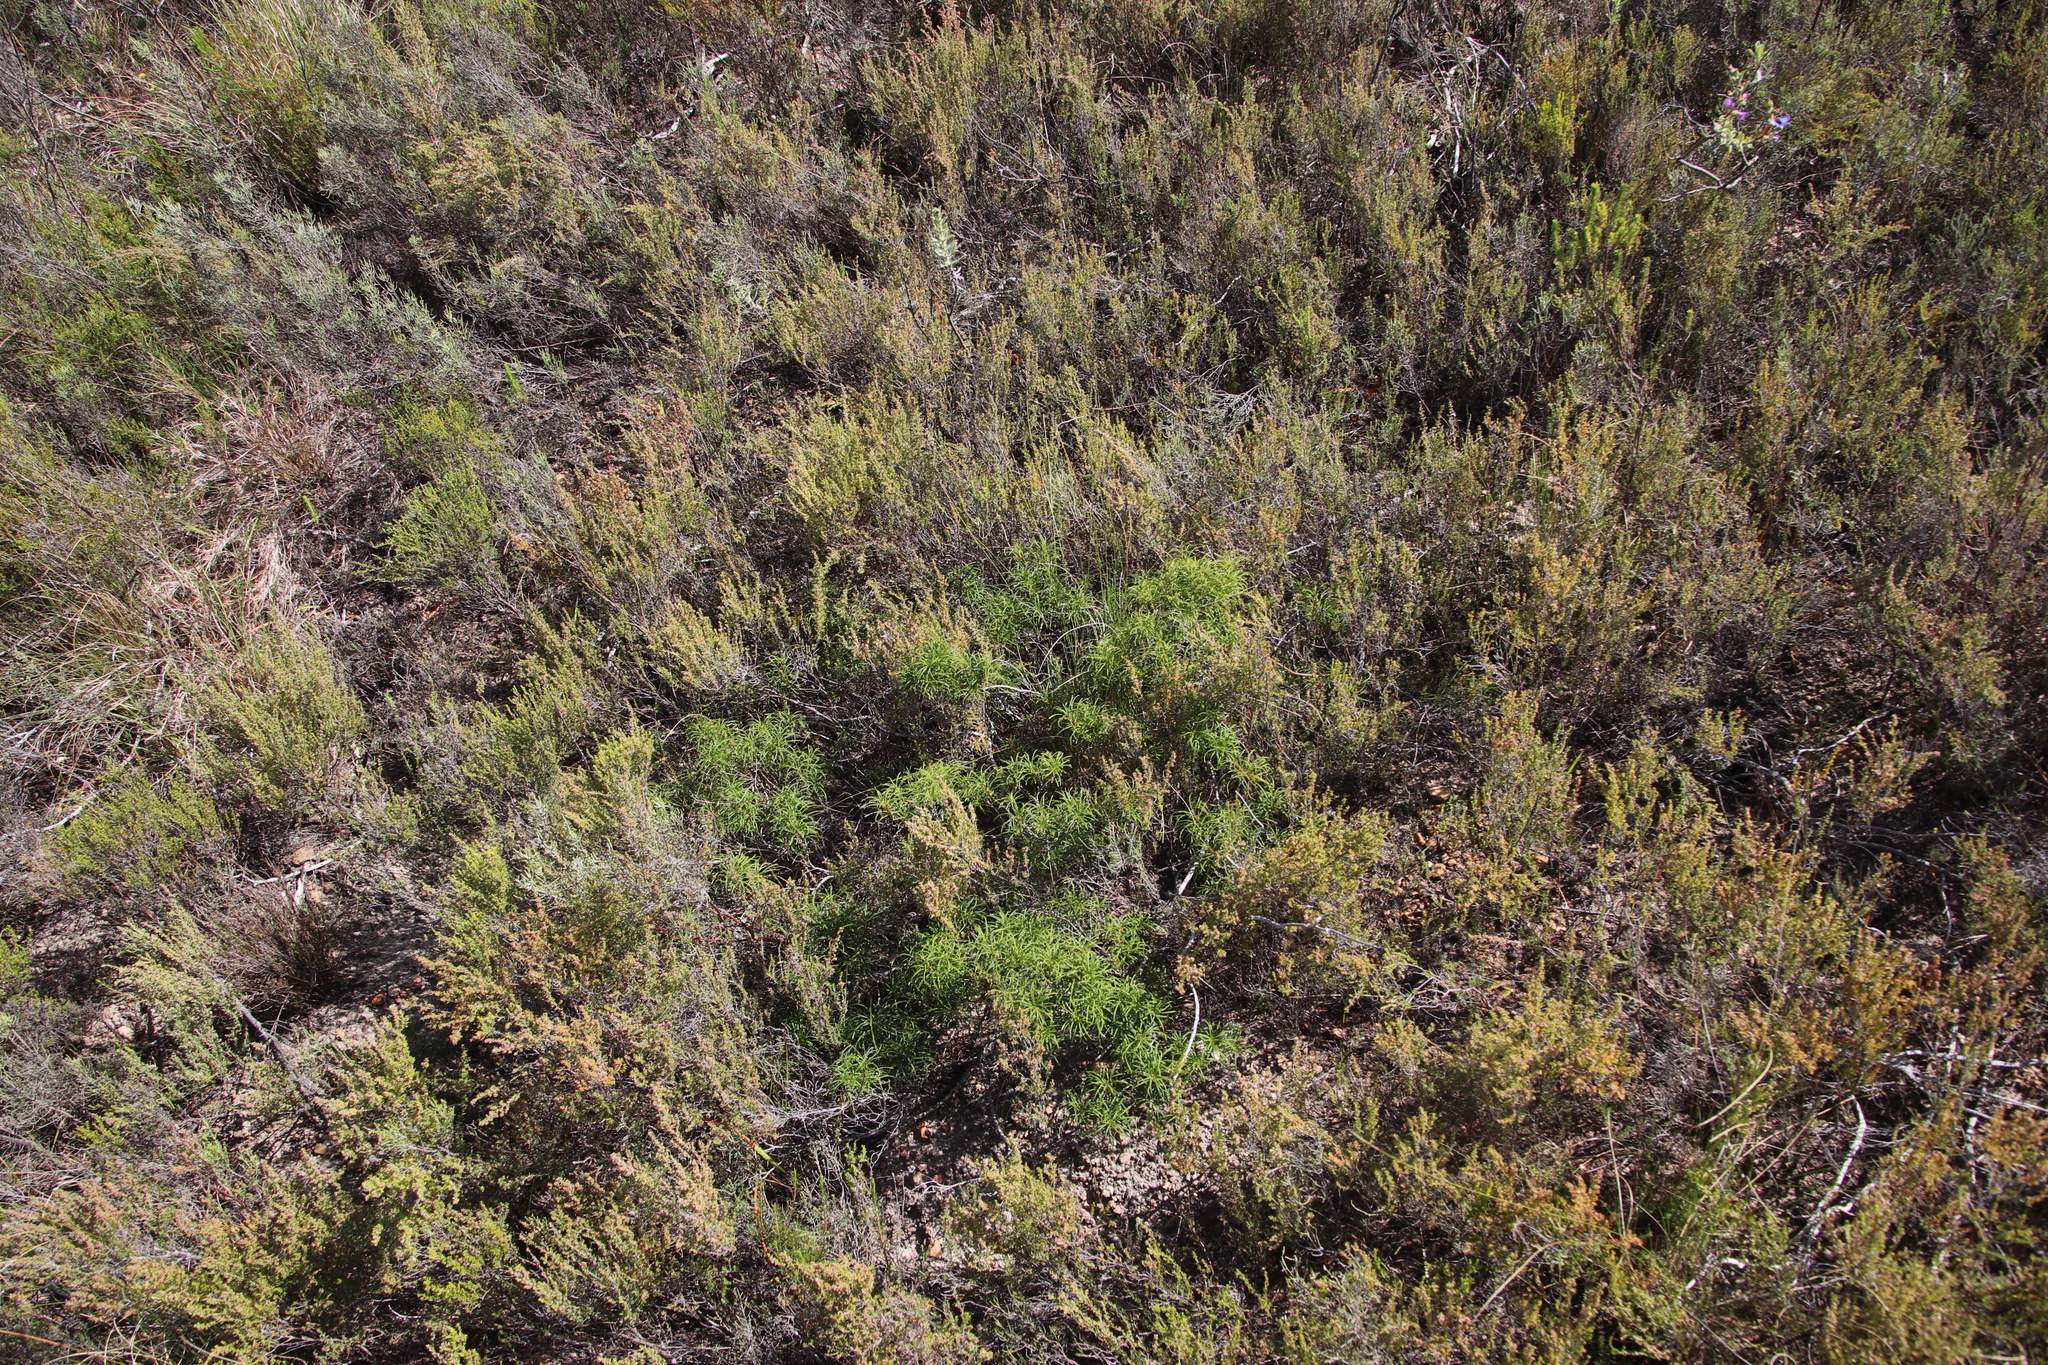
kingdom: Plantae
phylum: Tracheophyta
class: Magnoliopsida
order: Sapindales
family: Anacardiaceae
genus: Searsia
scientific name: Searsia rosmarinifolia
